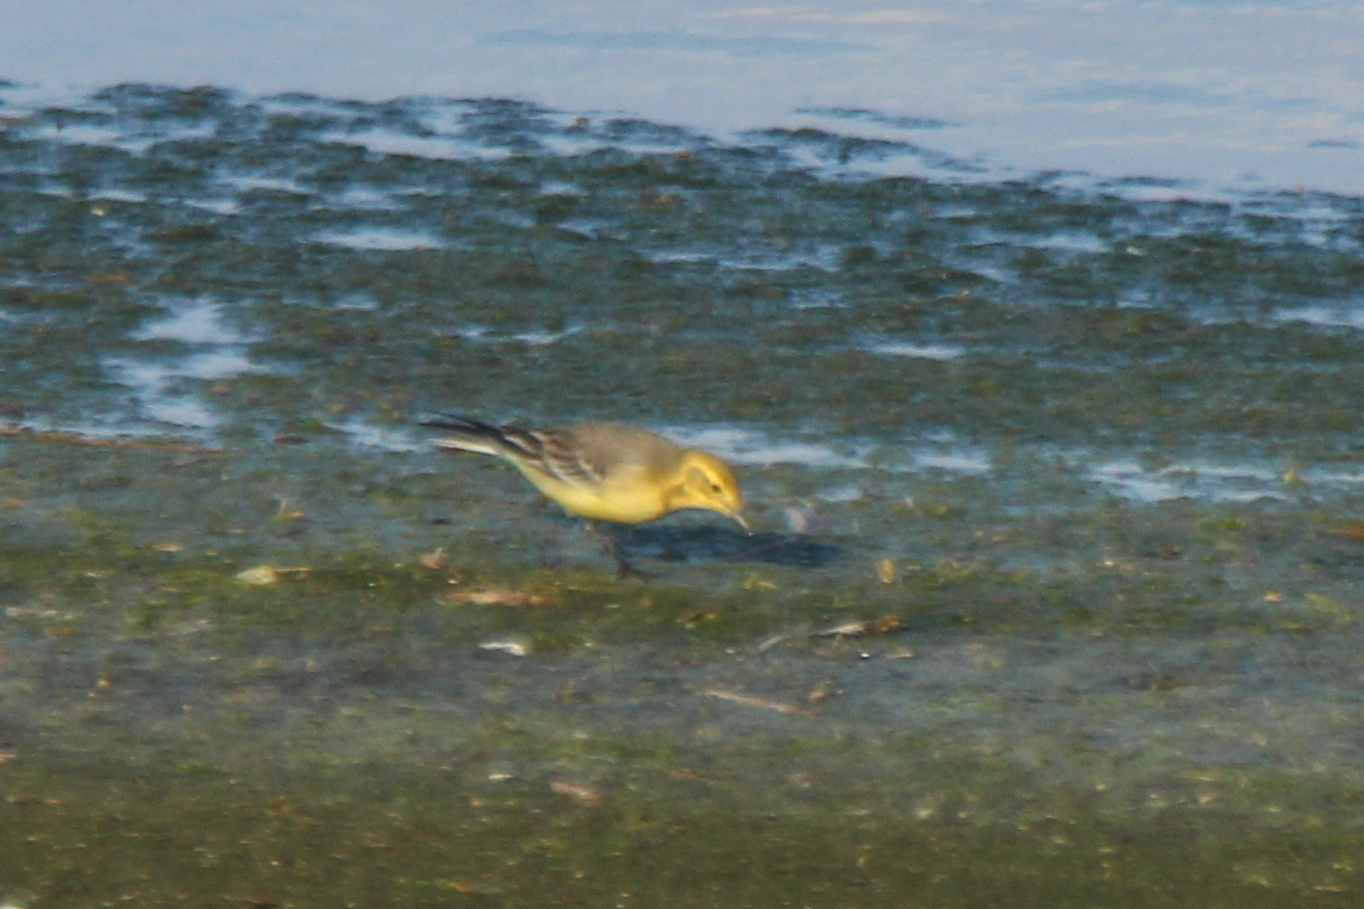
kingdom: Animalia
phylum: Chordata
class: Aves
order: Passeriformes
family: Motacillidae
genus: Motacilla
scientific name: Motacilla citreola
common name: Citrine wagtail
